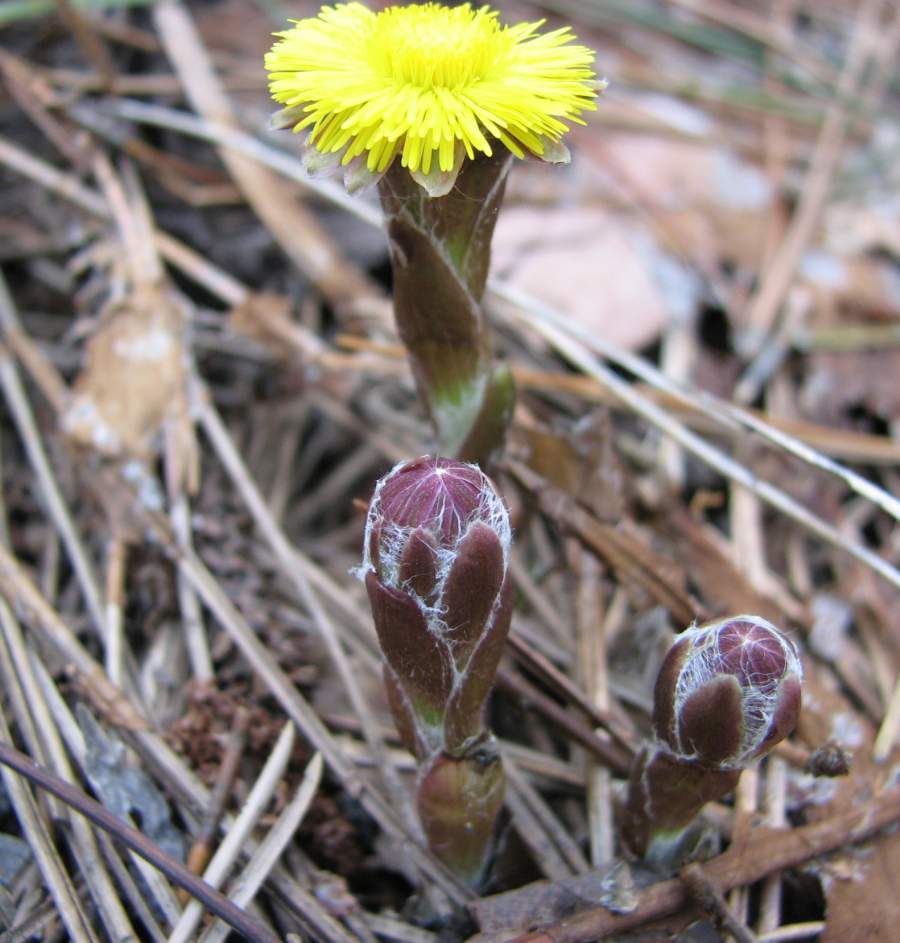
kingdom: Plantae
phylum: Tracheophyta
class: Magnoliopsida
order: Asterales
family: Asteraceae
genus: Tussilago
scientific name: Tussilago farfara
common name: Coltsfoot
